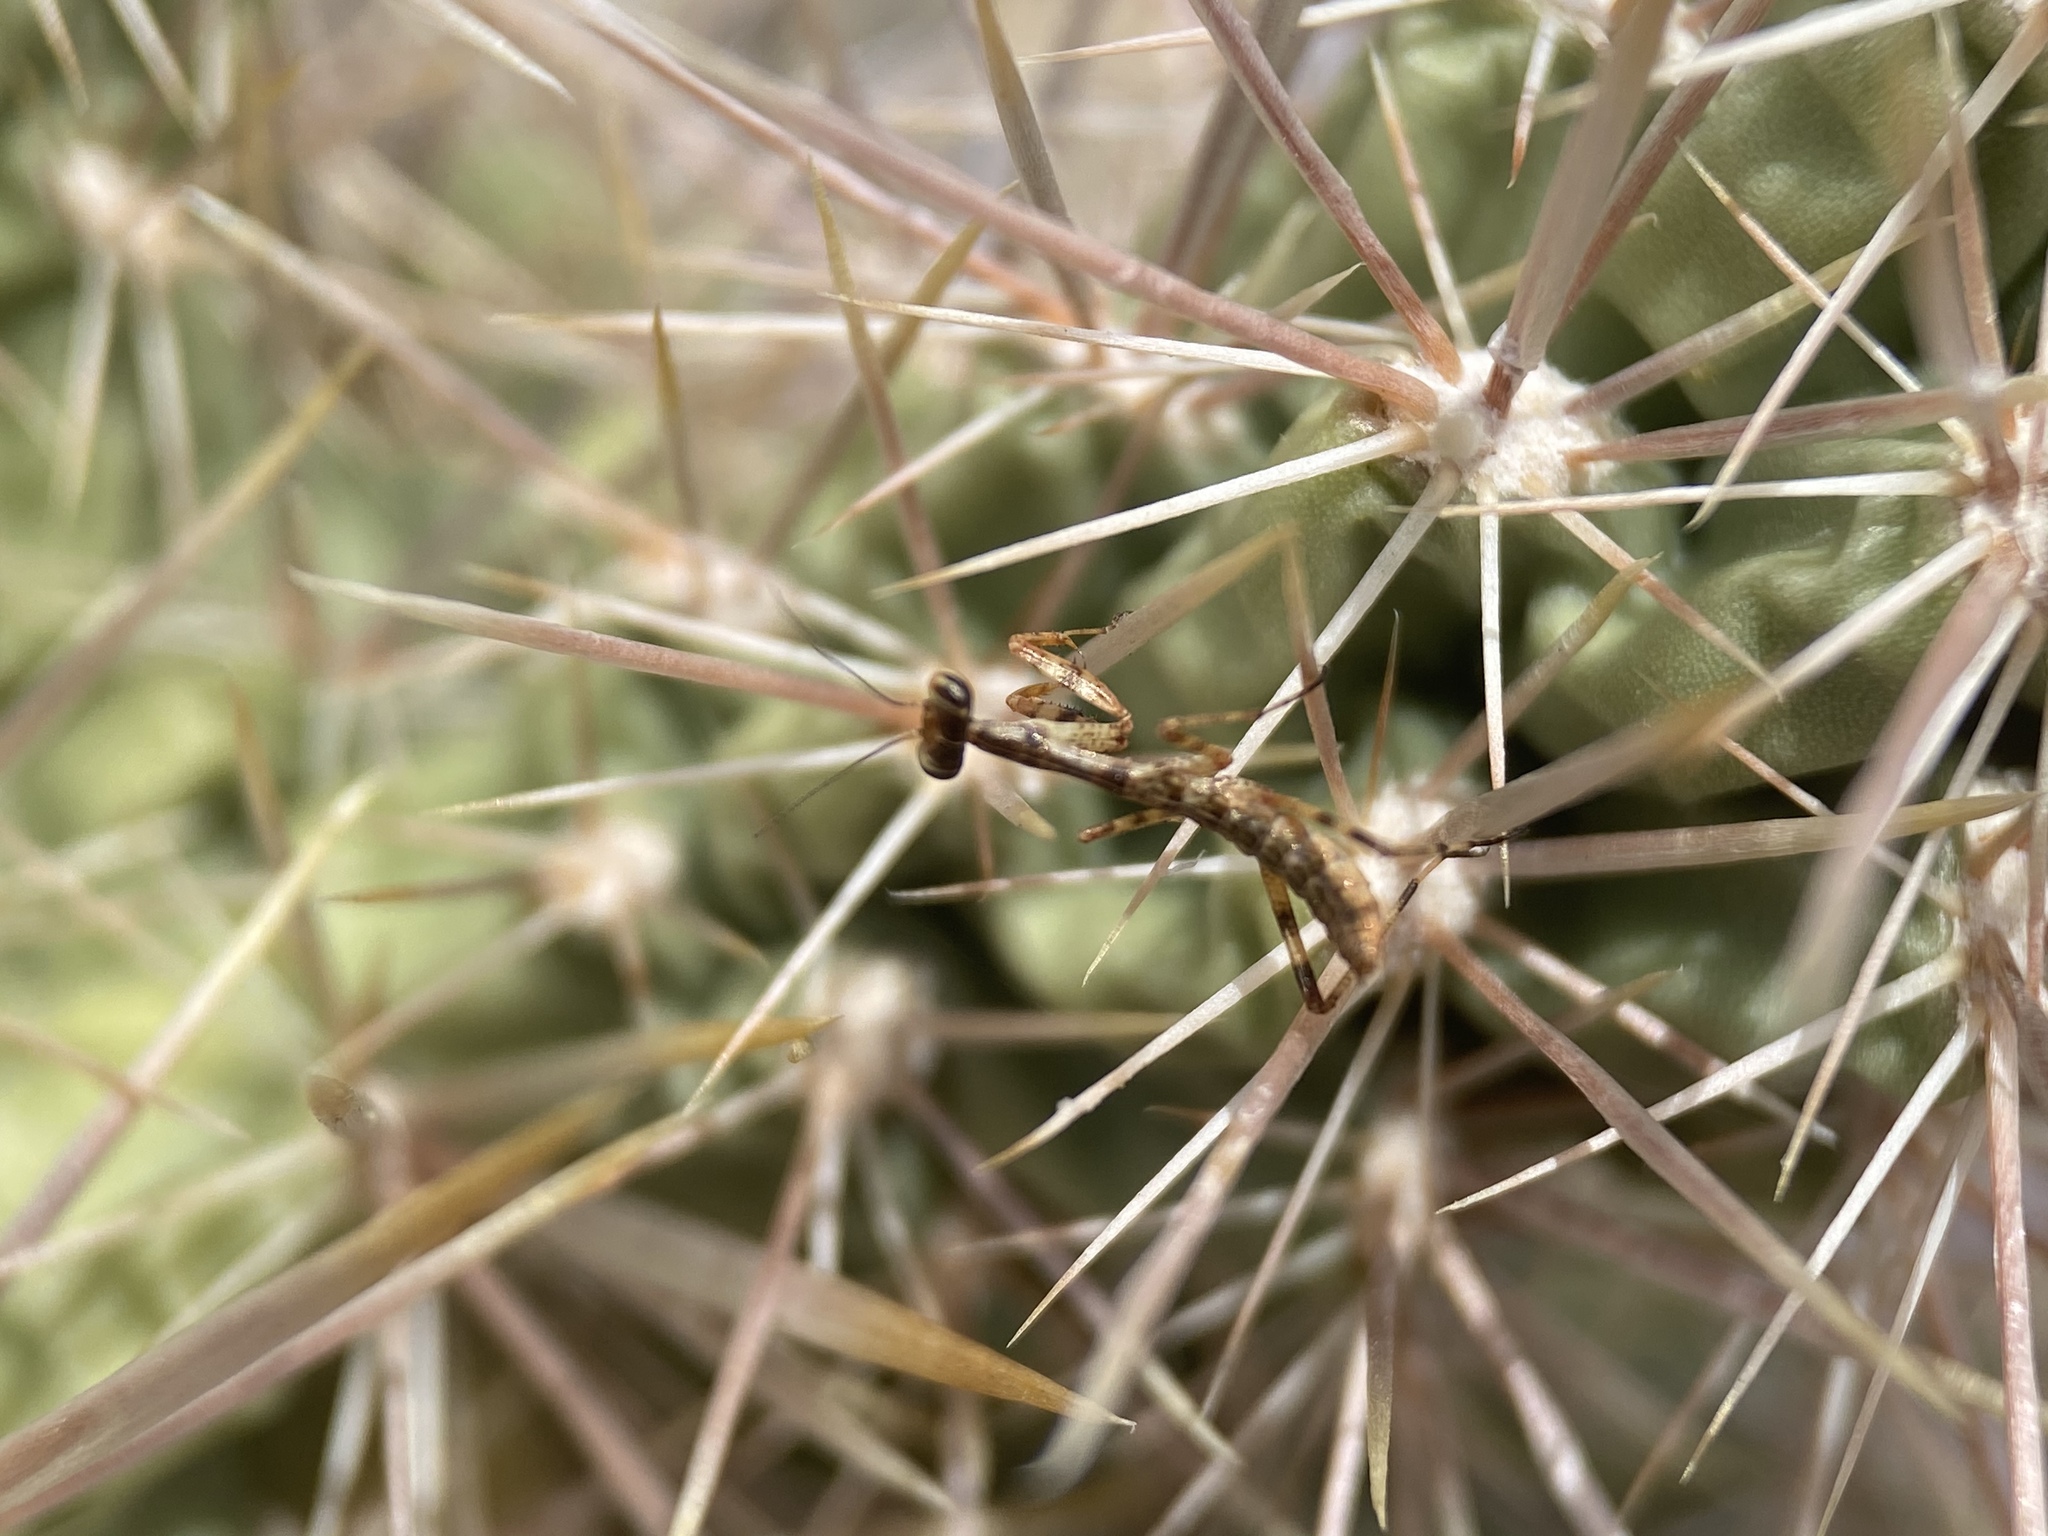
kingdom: Animalia
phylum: Arthropoda
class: Insecta
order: Mantodea
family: Mantidae
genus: Stagmomantis
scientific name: Stagmomantis californica
